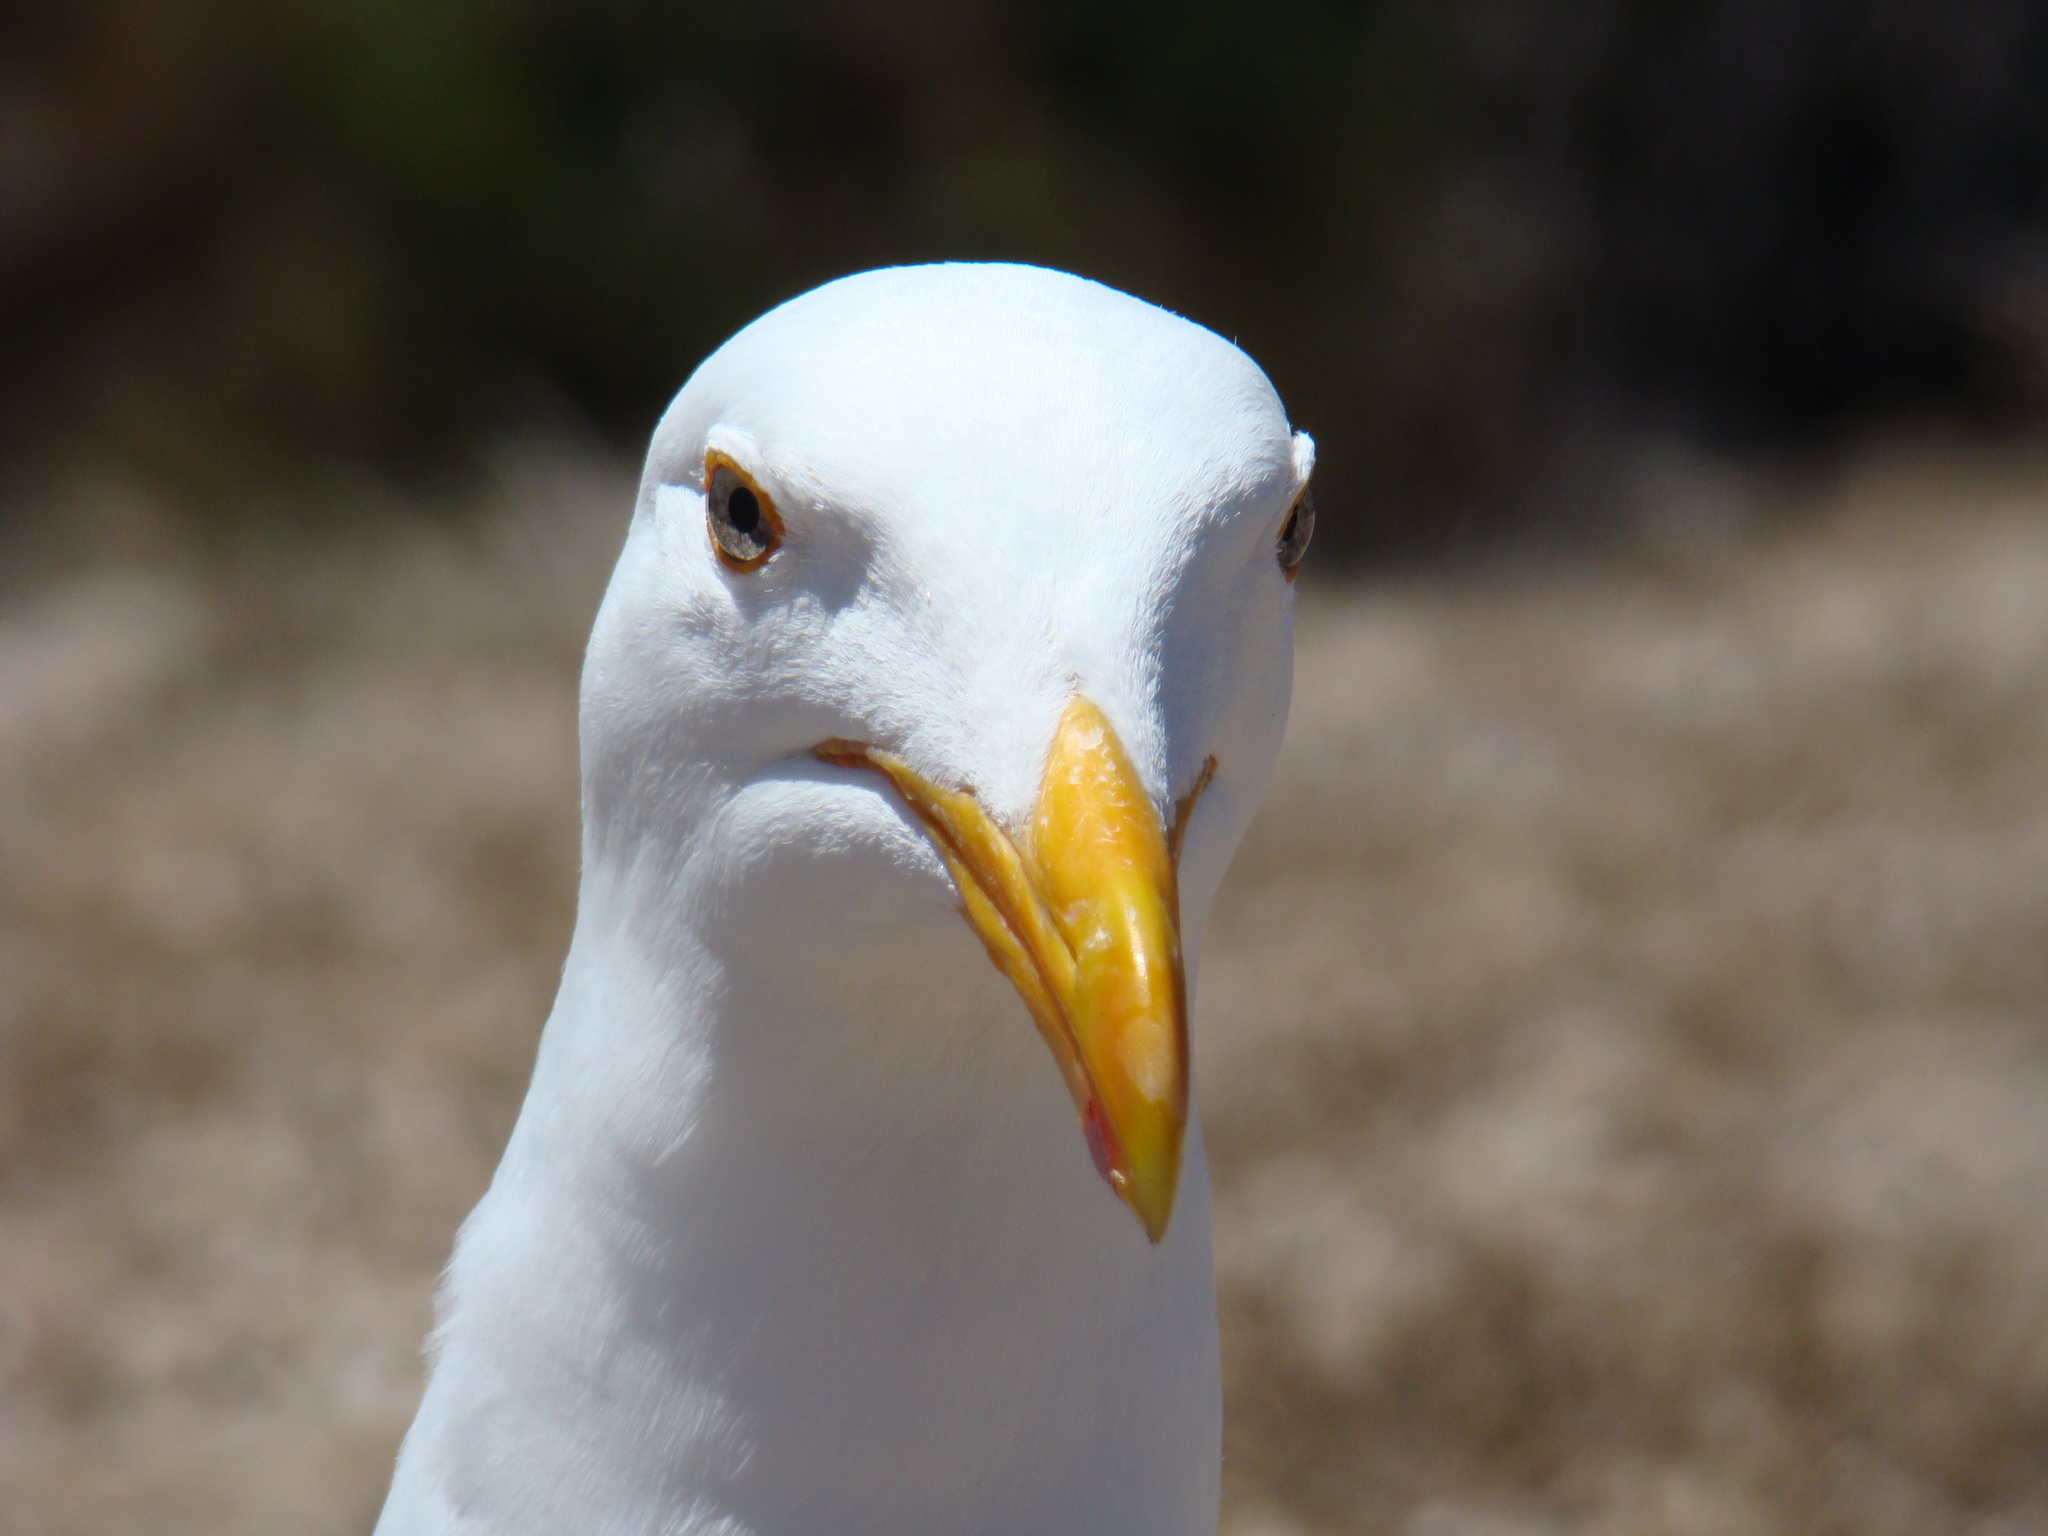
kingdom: Animalia
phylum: Chordata
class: Aves
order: Charadriiformes
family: Laridae
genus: Larus
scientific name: Larus occidentalis
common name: Western gull
